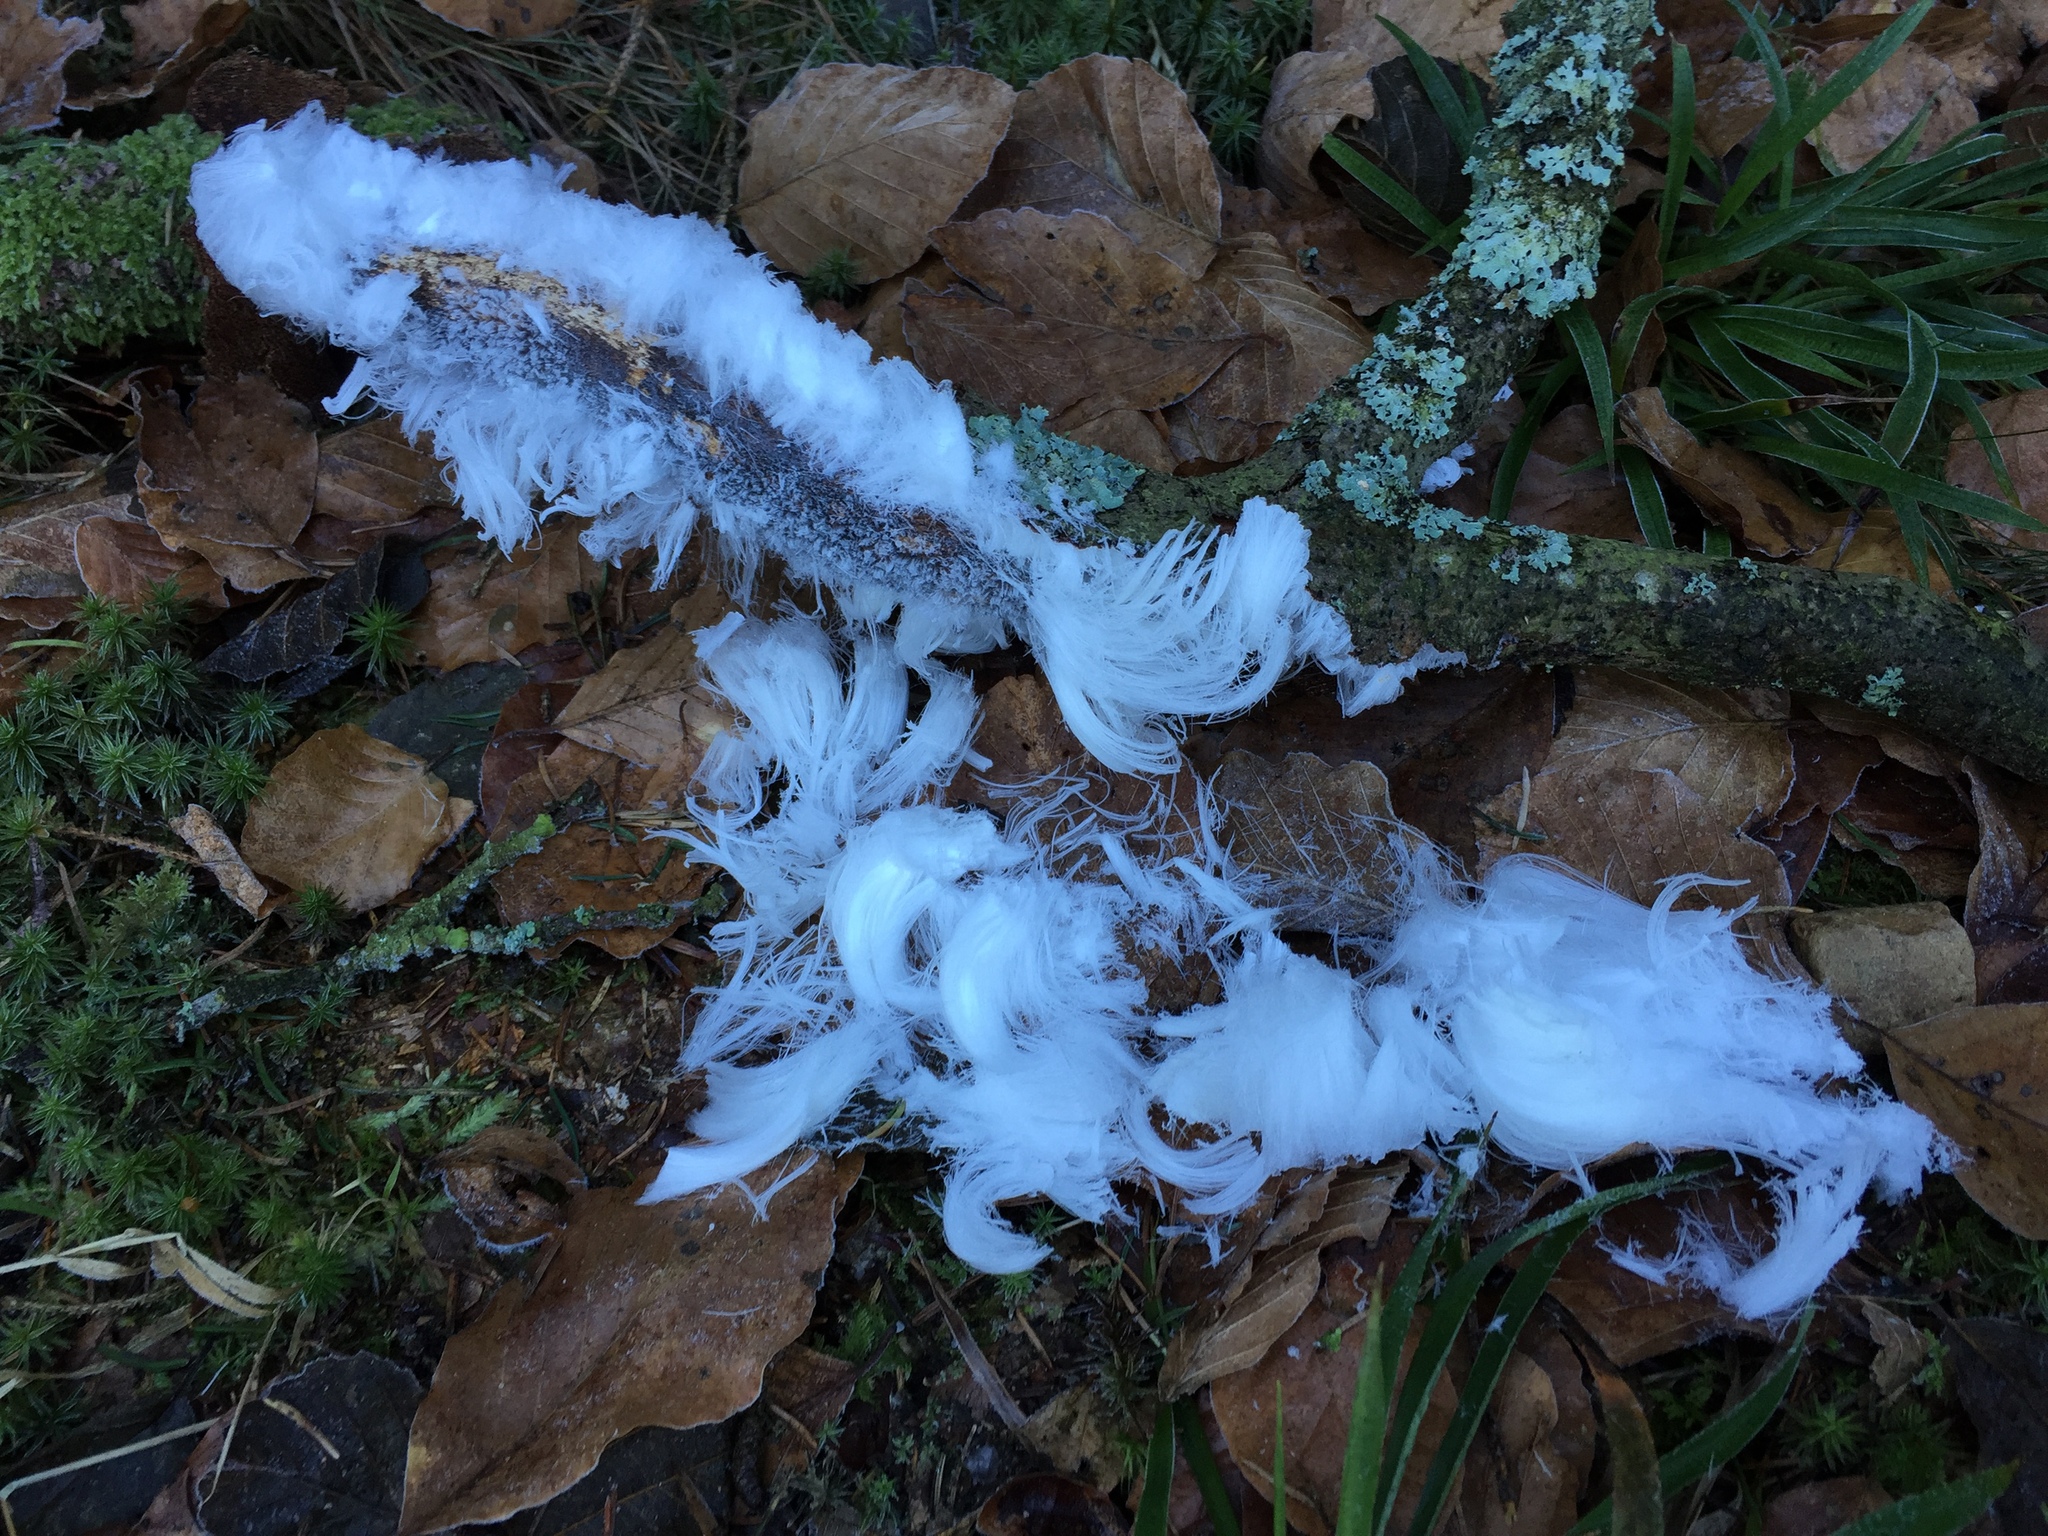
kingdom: Fungi
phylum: Basidiomycota
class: Agaricomycetes
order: Auriculariales
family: Auriculariaceae
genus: Exidiopsis
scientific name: Exidiopsis effusa
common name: Hair ice crust
